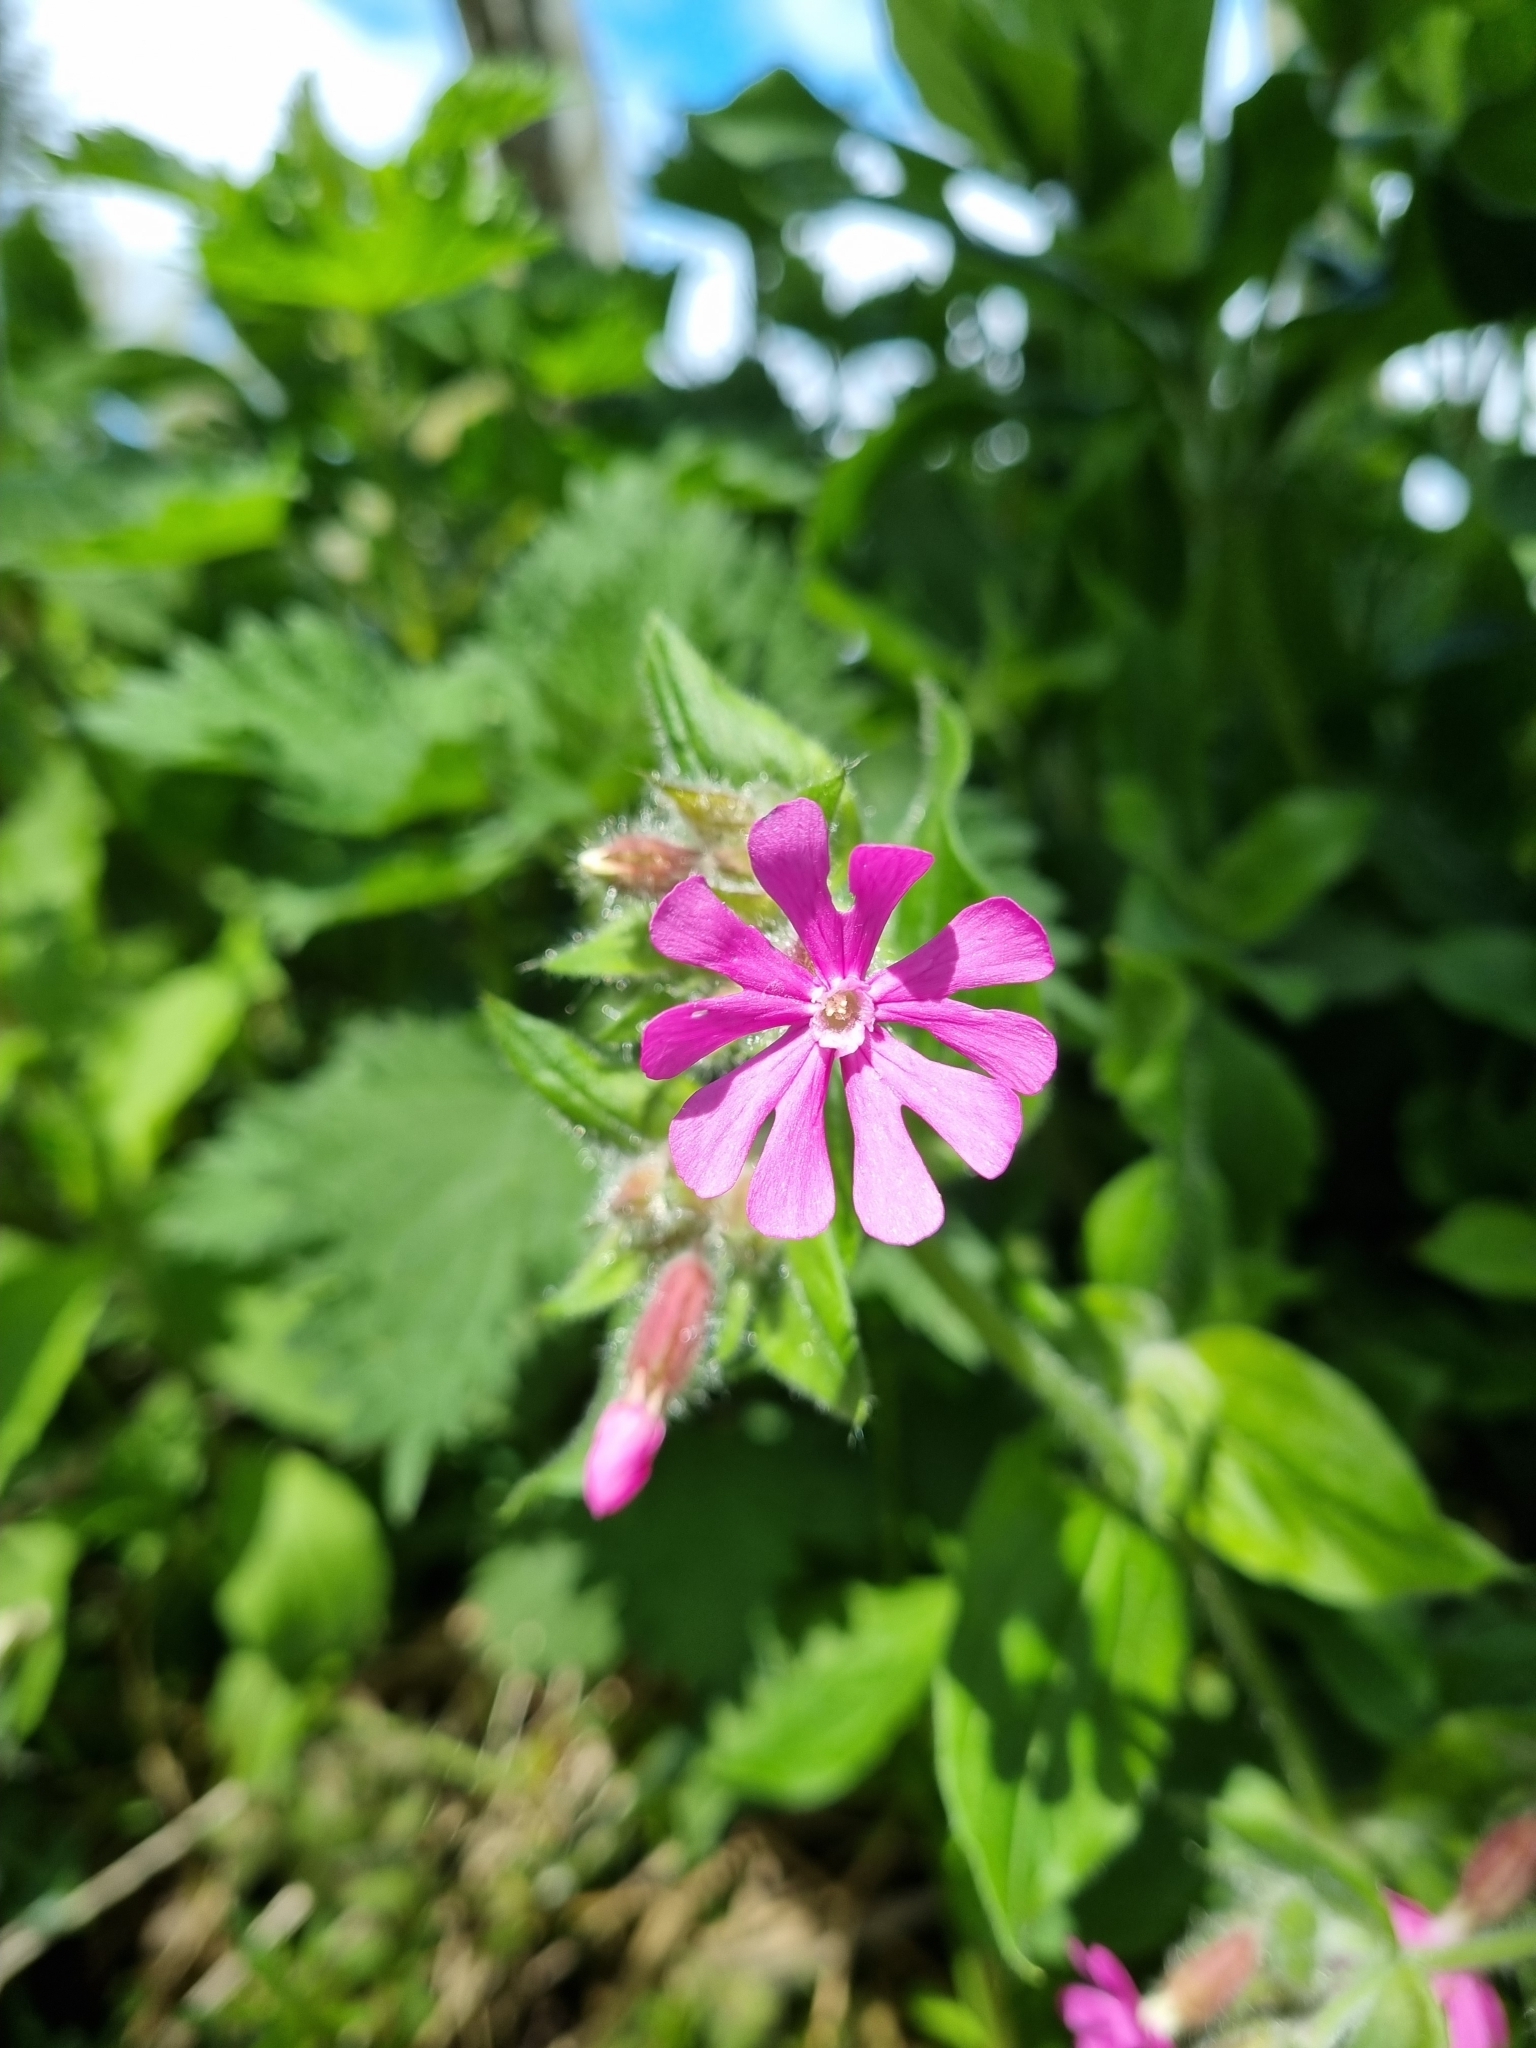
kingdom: Plantae
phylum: Tracheophyta
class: Magnoliopsida
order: Caryophyllales
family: Caryophyllaceae
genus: Silene
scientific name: Silene dioica
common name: Red campion
